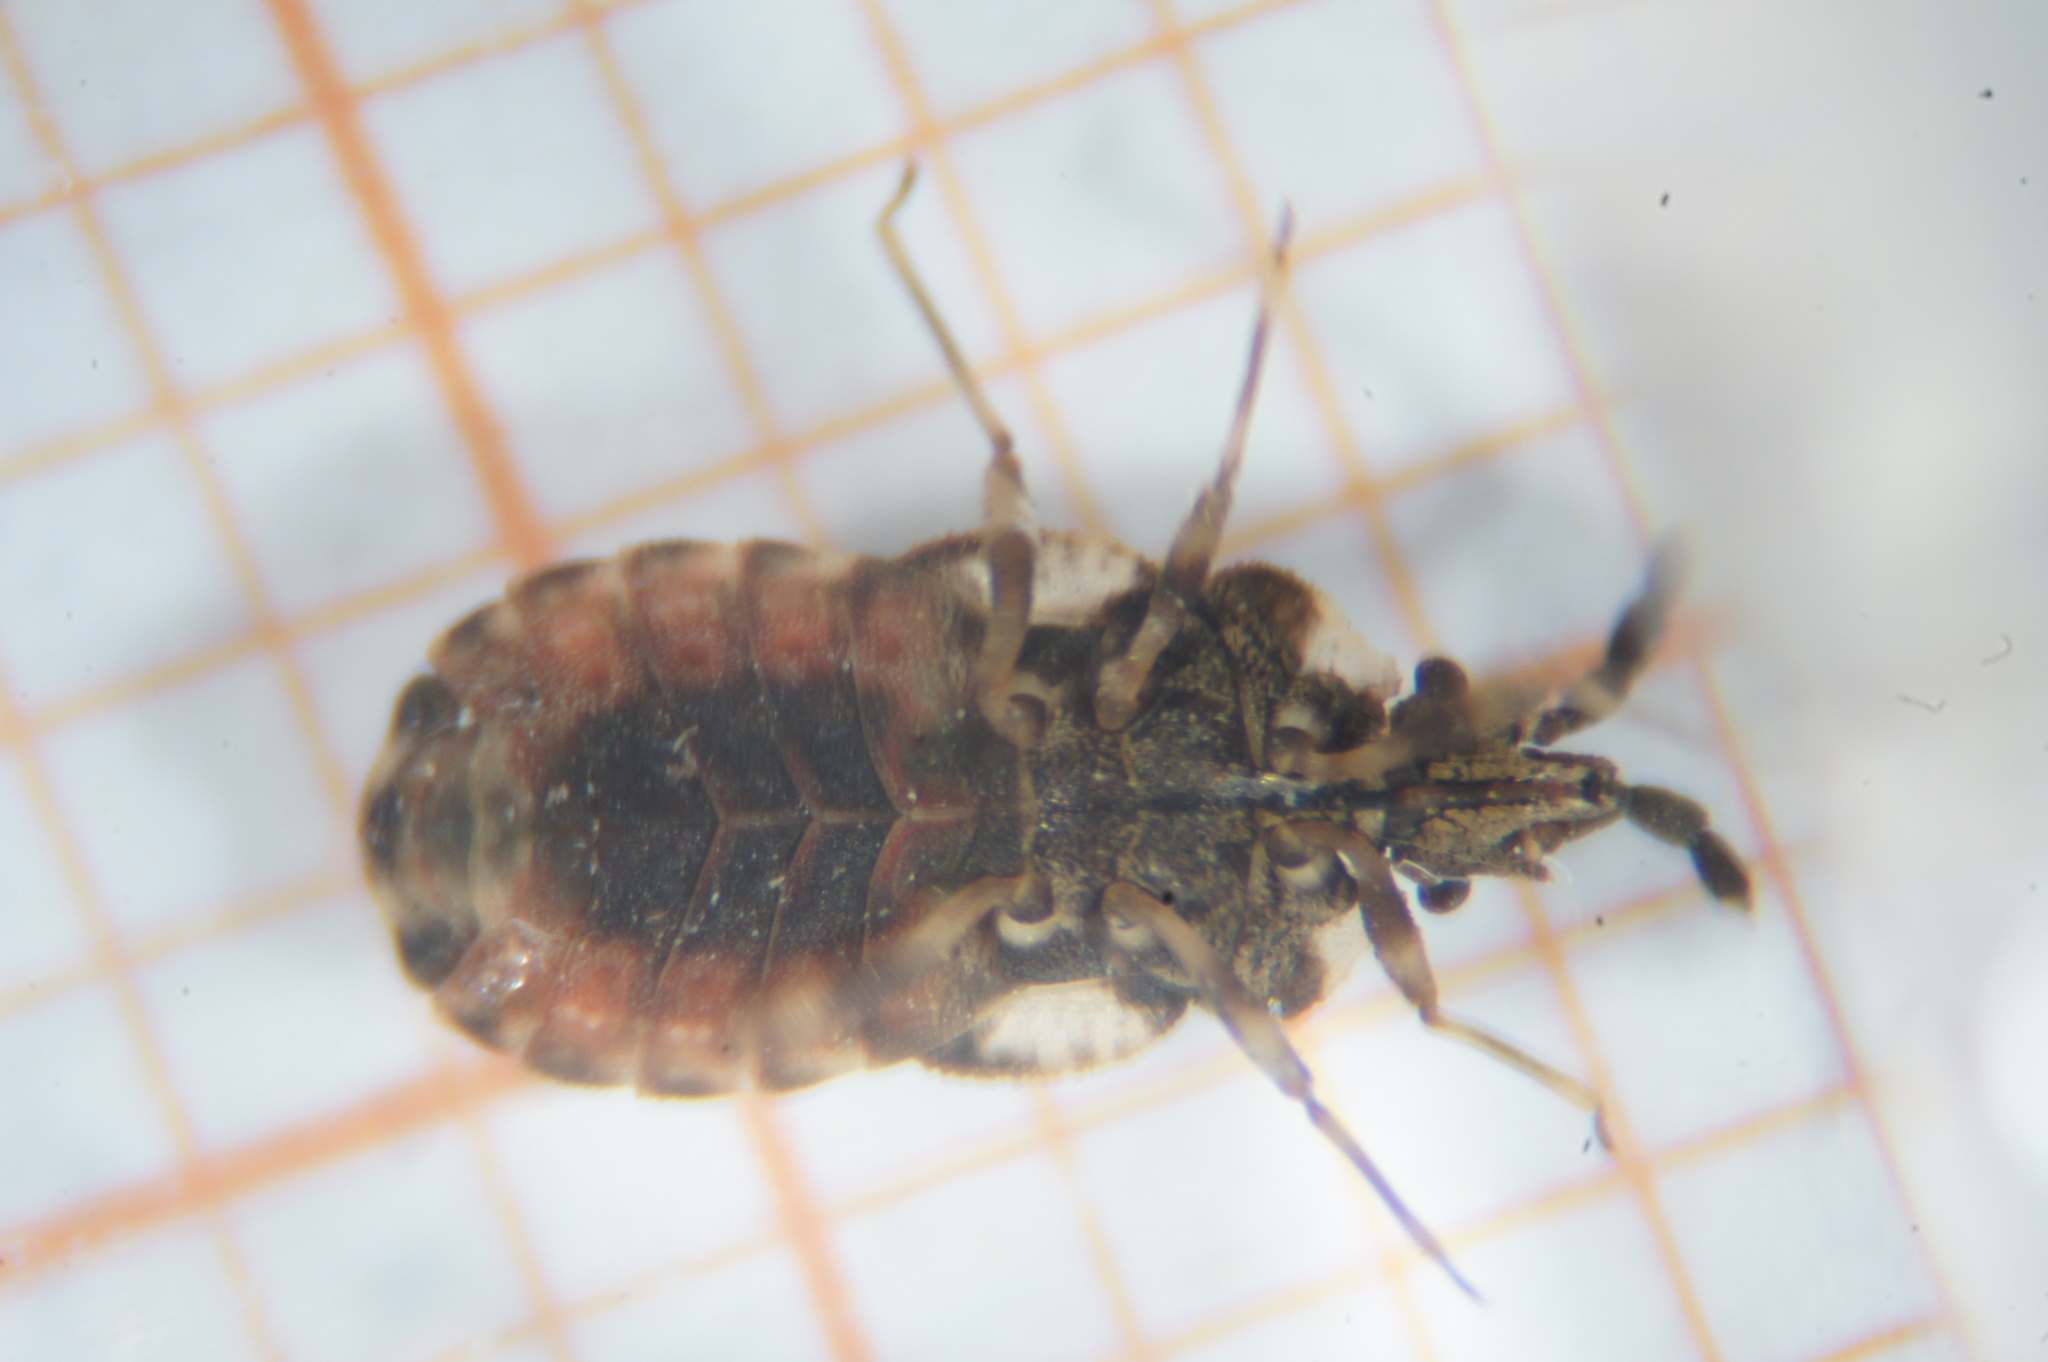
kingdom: Animalia
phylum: Arthropoda
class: Insecta
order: Hemiptera
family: Aradidae
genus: Aradus
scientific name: Aradus depressus
